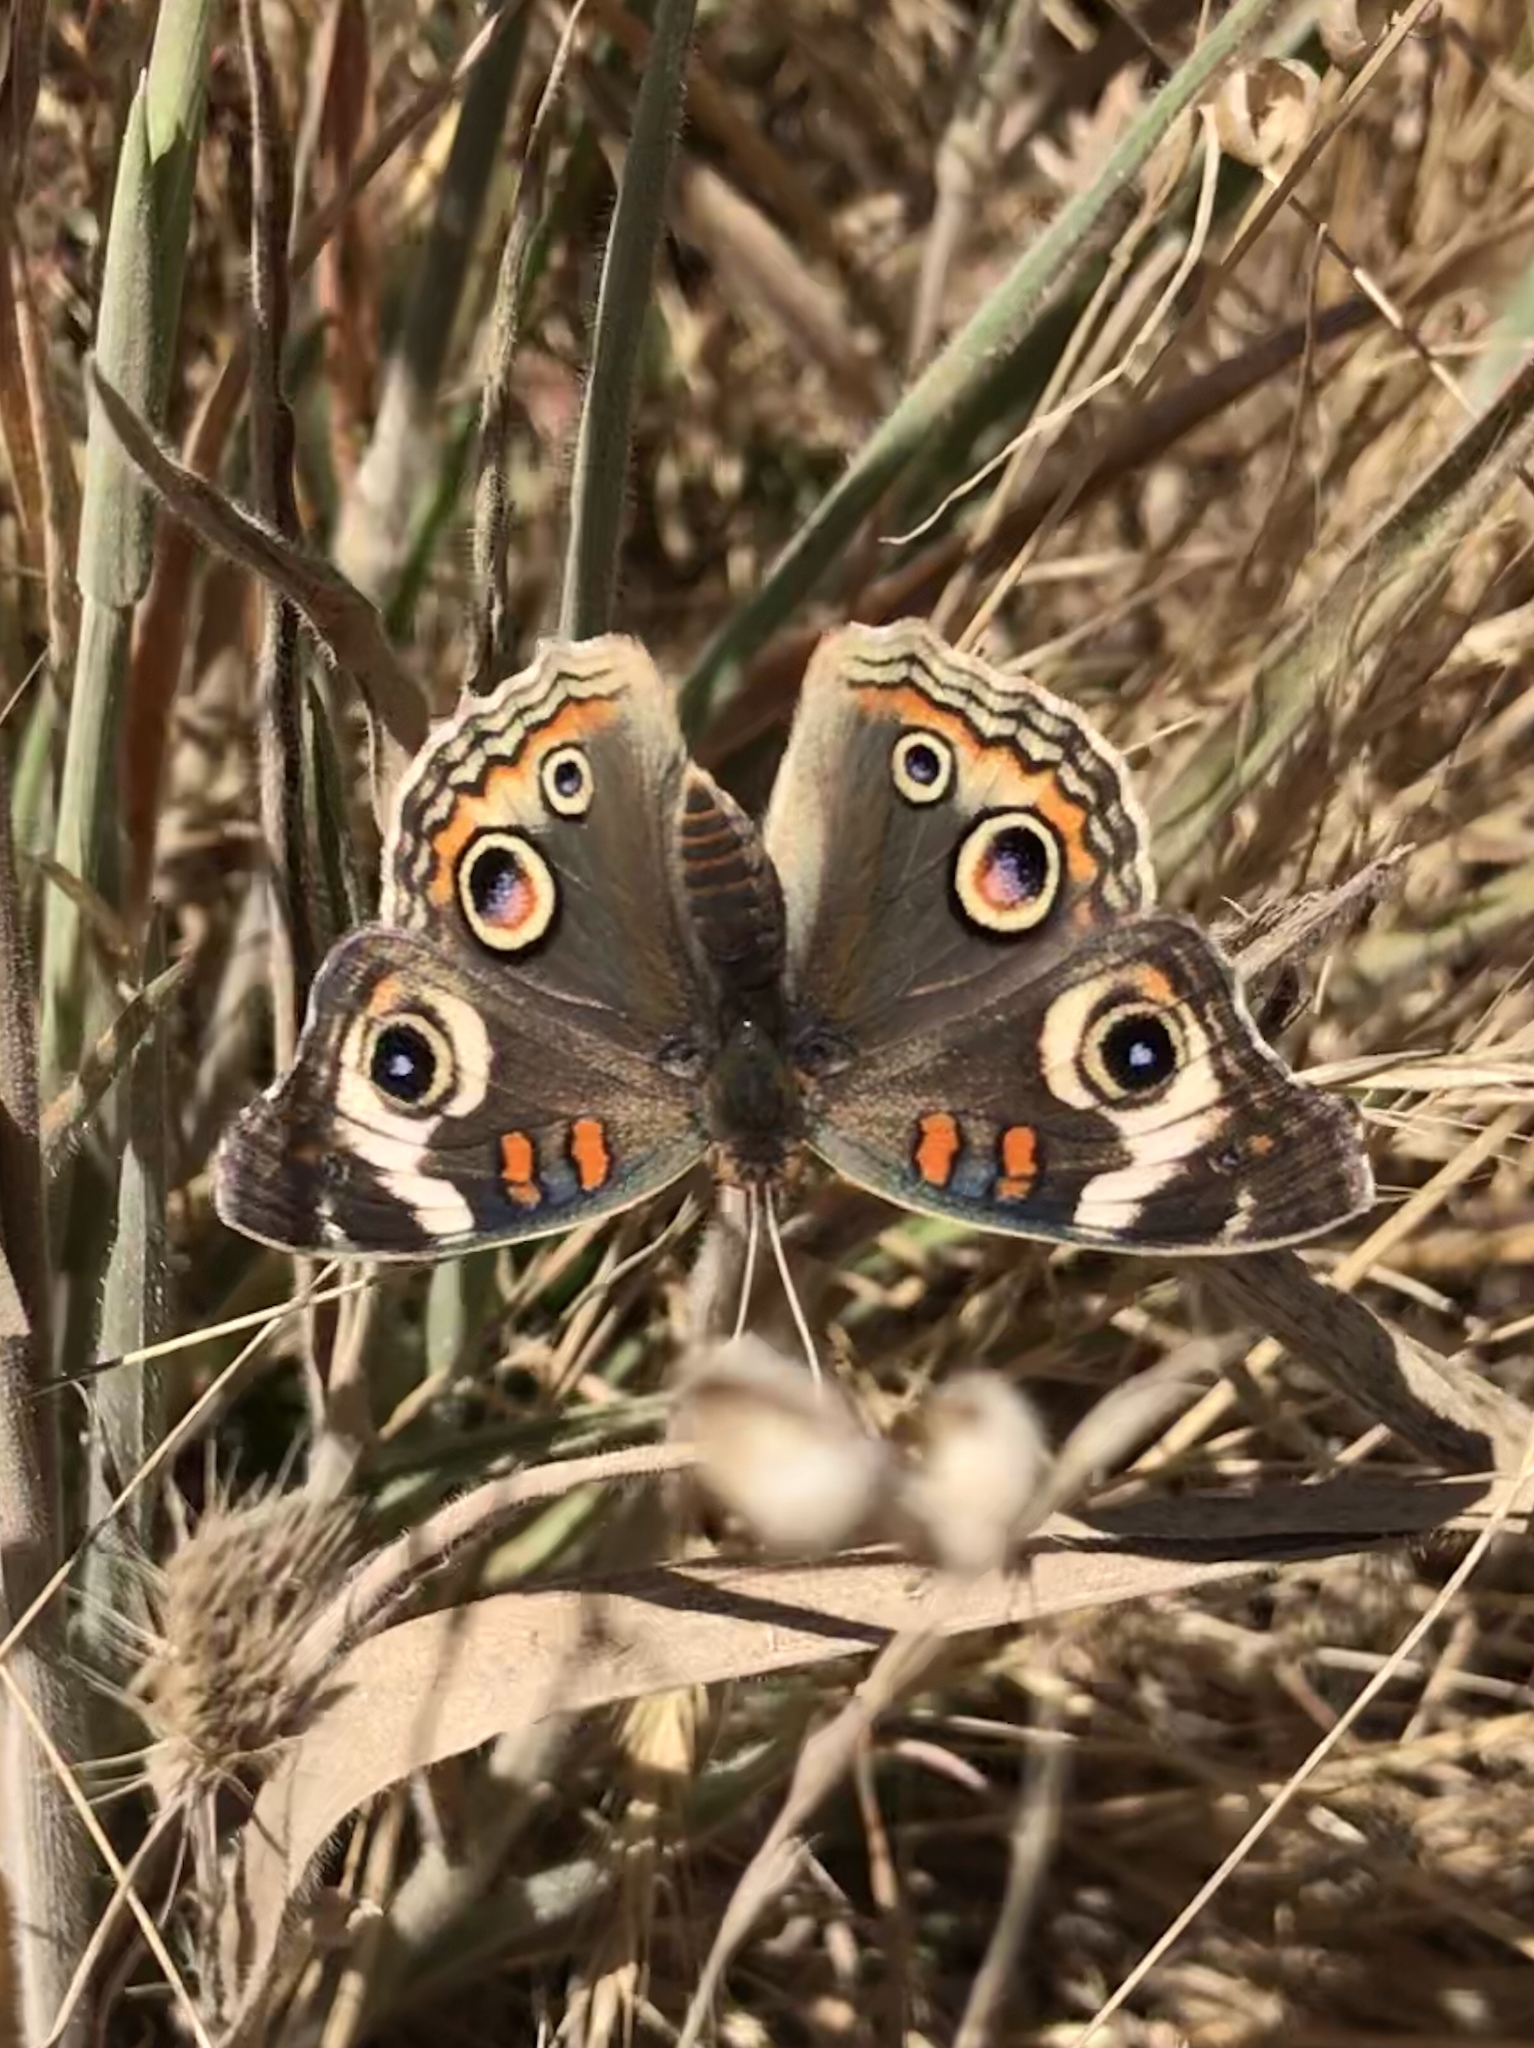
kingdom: Animalia
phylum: Arthropoda
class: Insecta
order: Lepidoptera
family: Nymphalidae
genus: Junonia
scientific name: Junonia grisea
